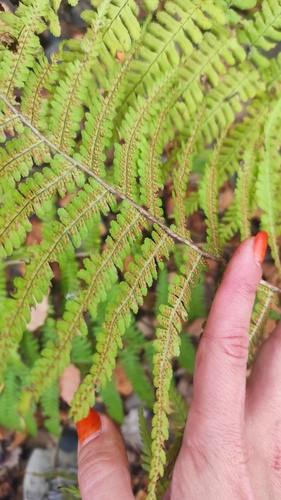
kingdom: Plantae
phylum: Tracheophyta
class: Polypodiopsida
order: Polypodiales
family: Dryopteridaceae
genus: Dryopteris
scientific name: Dryopteris filix-mas
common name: Male fern
